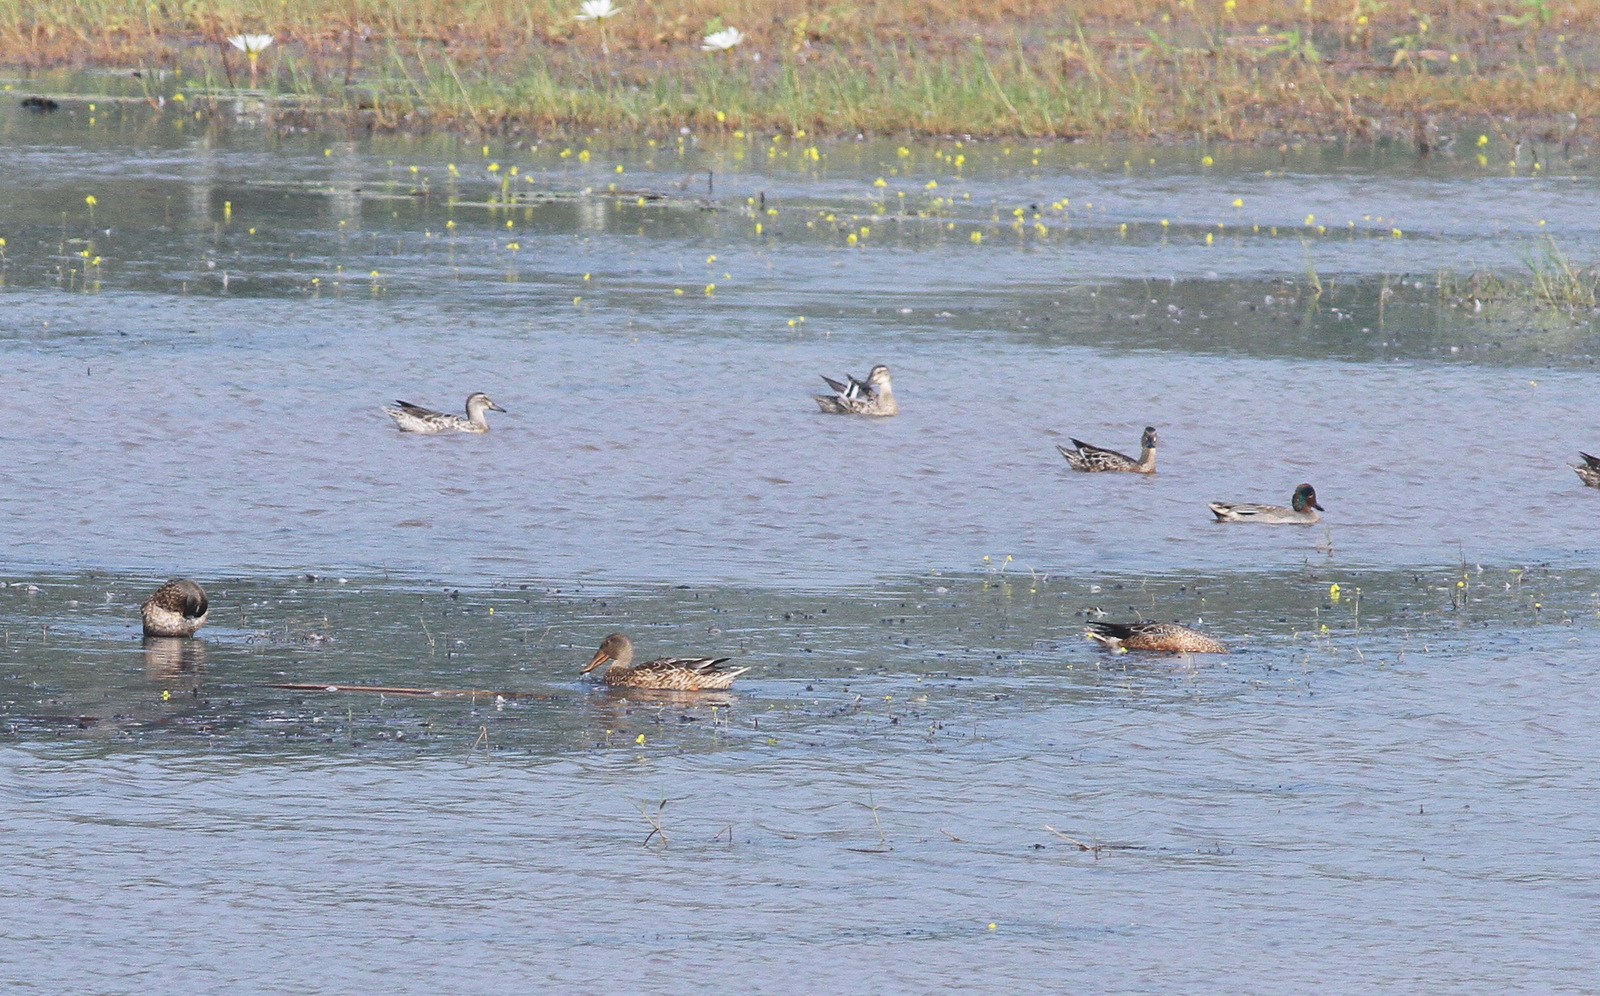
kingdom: Animalia
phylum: Chordata
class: Aves
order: Anseriformes
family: Anatidae
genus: Spatula
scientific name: Spatula clypeata
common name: Northern shoveler
